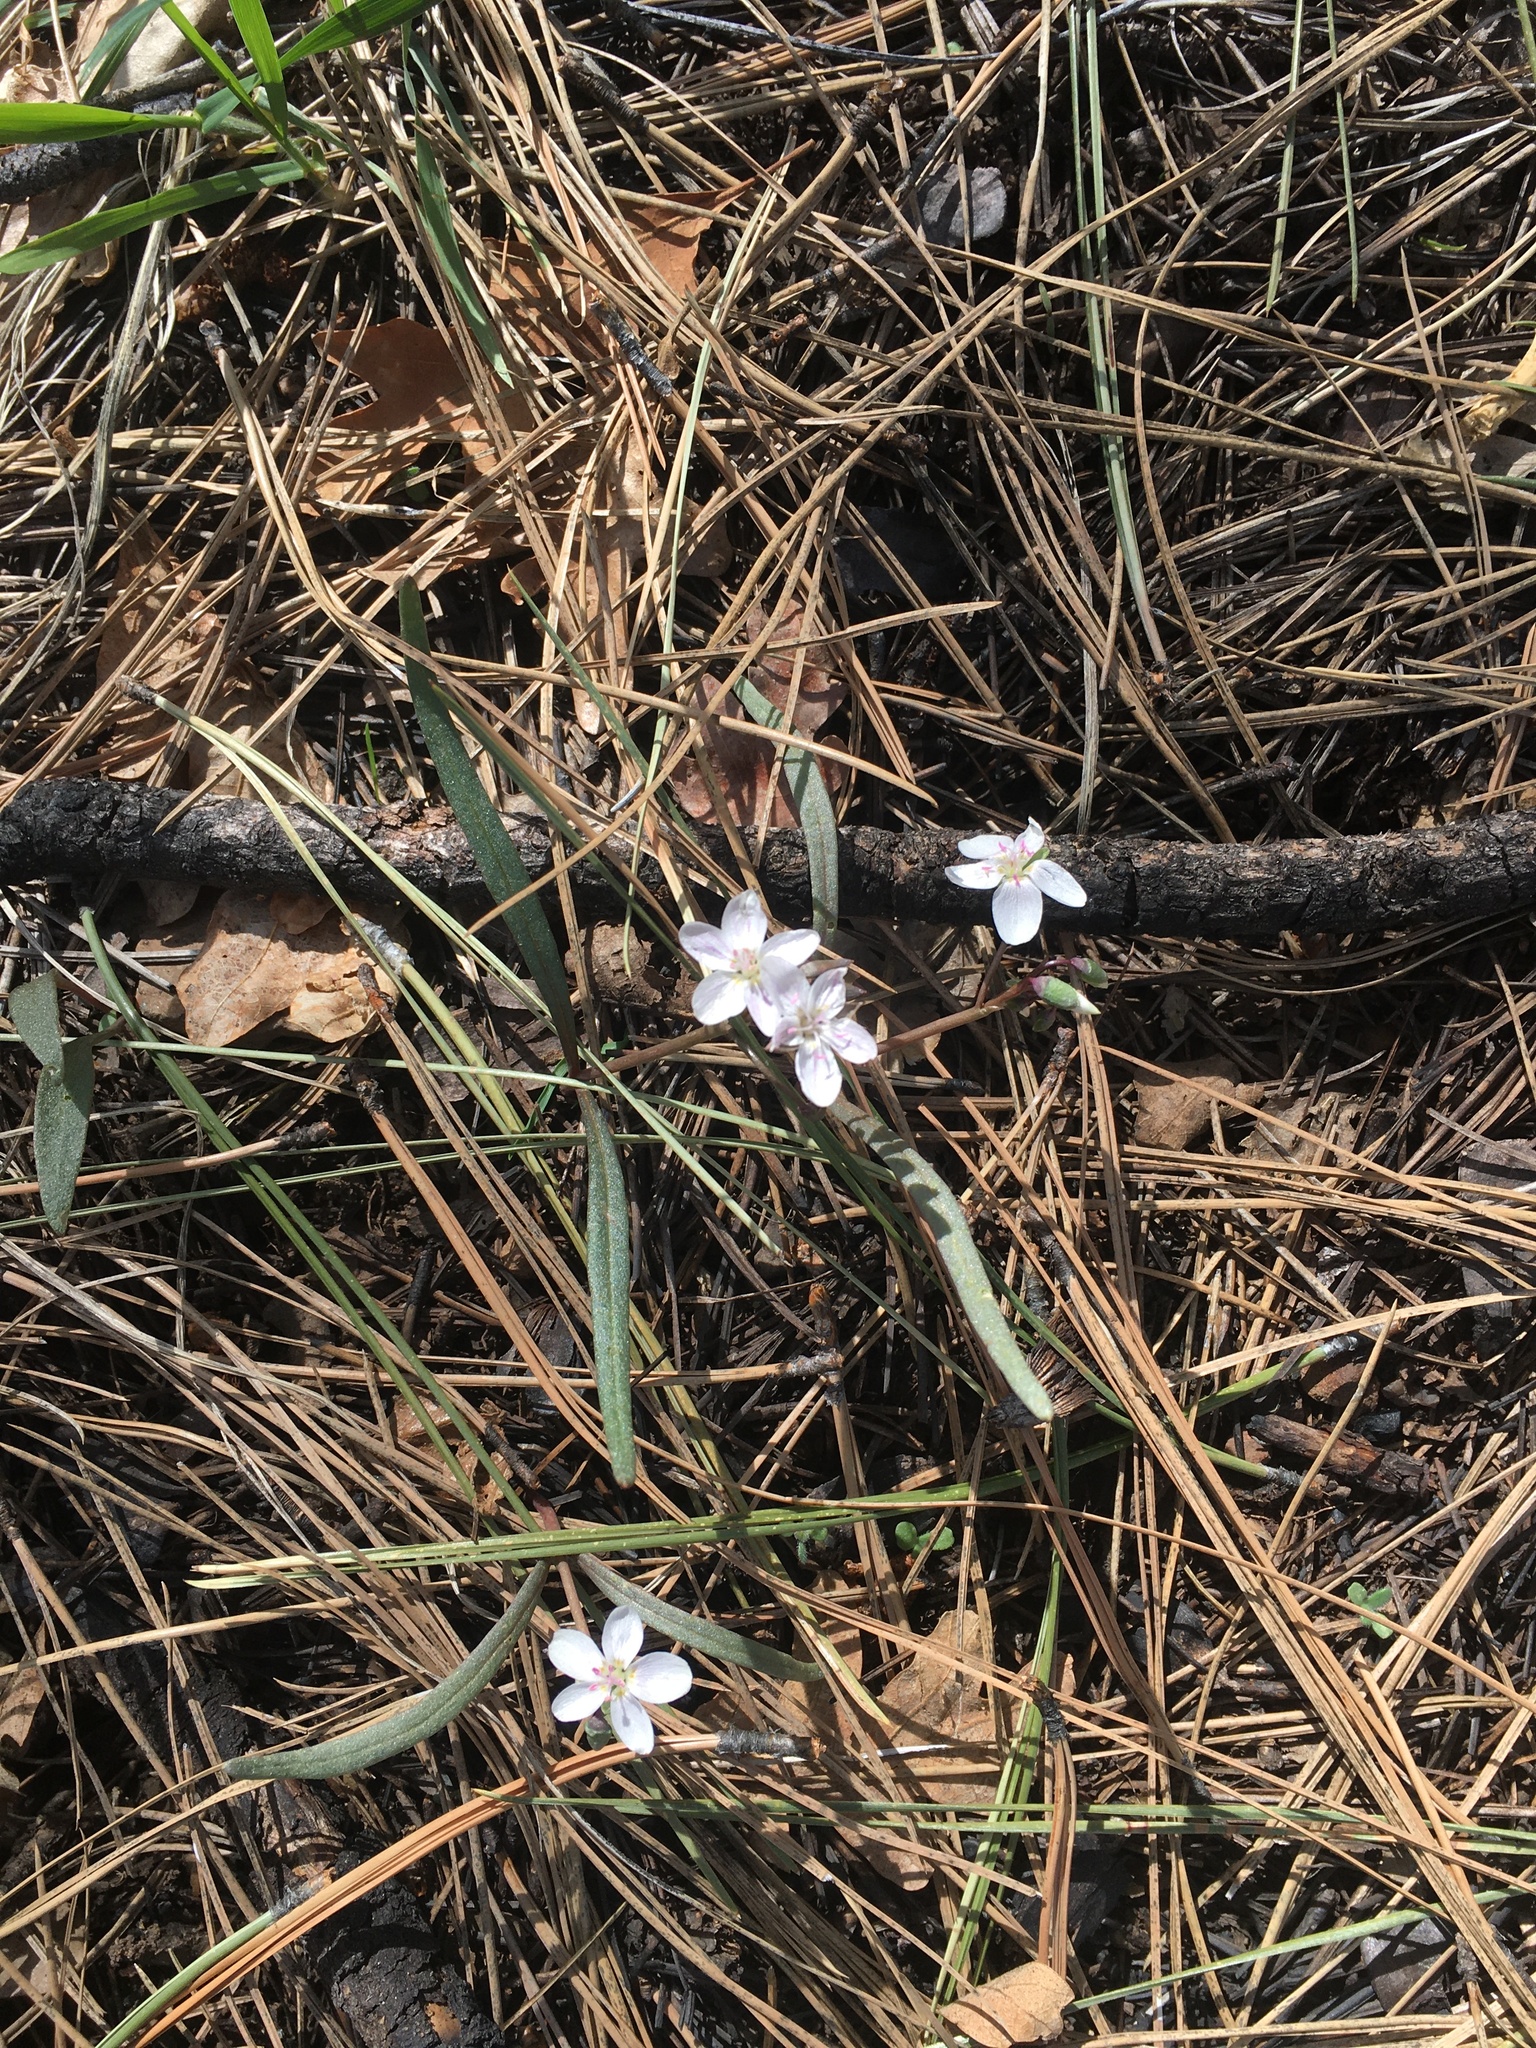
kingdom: Plantae
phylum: Tracheophyta
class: Magnoliopsida
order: Caryophyllales
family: Montiaceae
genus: Claytonia
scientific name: Claytonia rosea
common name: Rocky mountain spring-beauty
